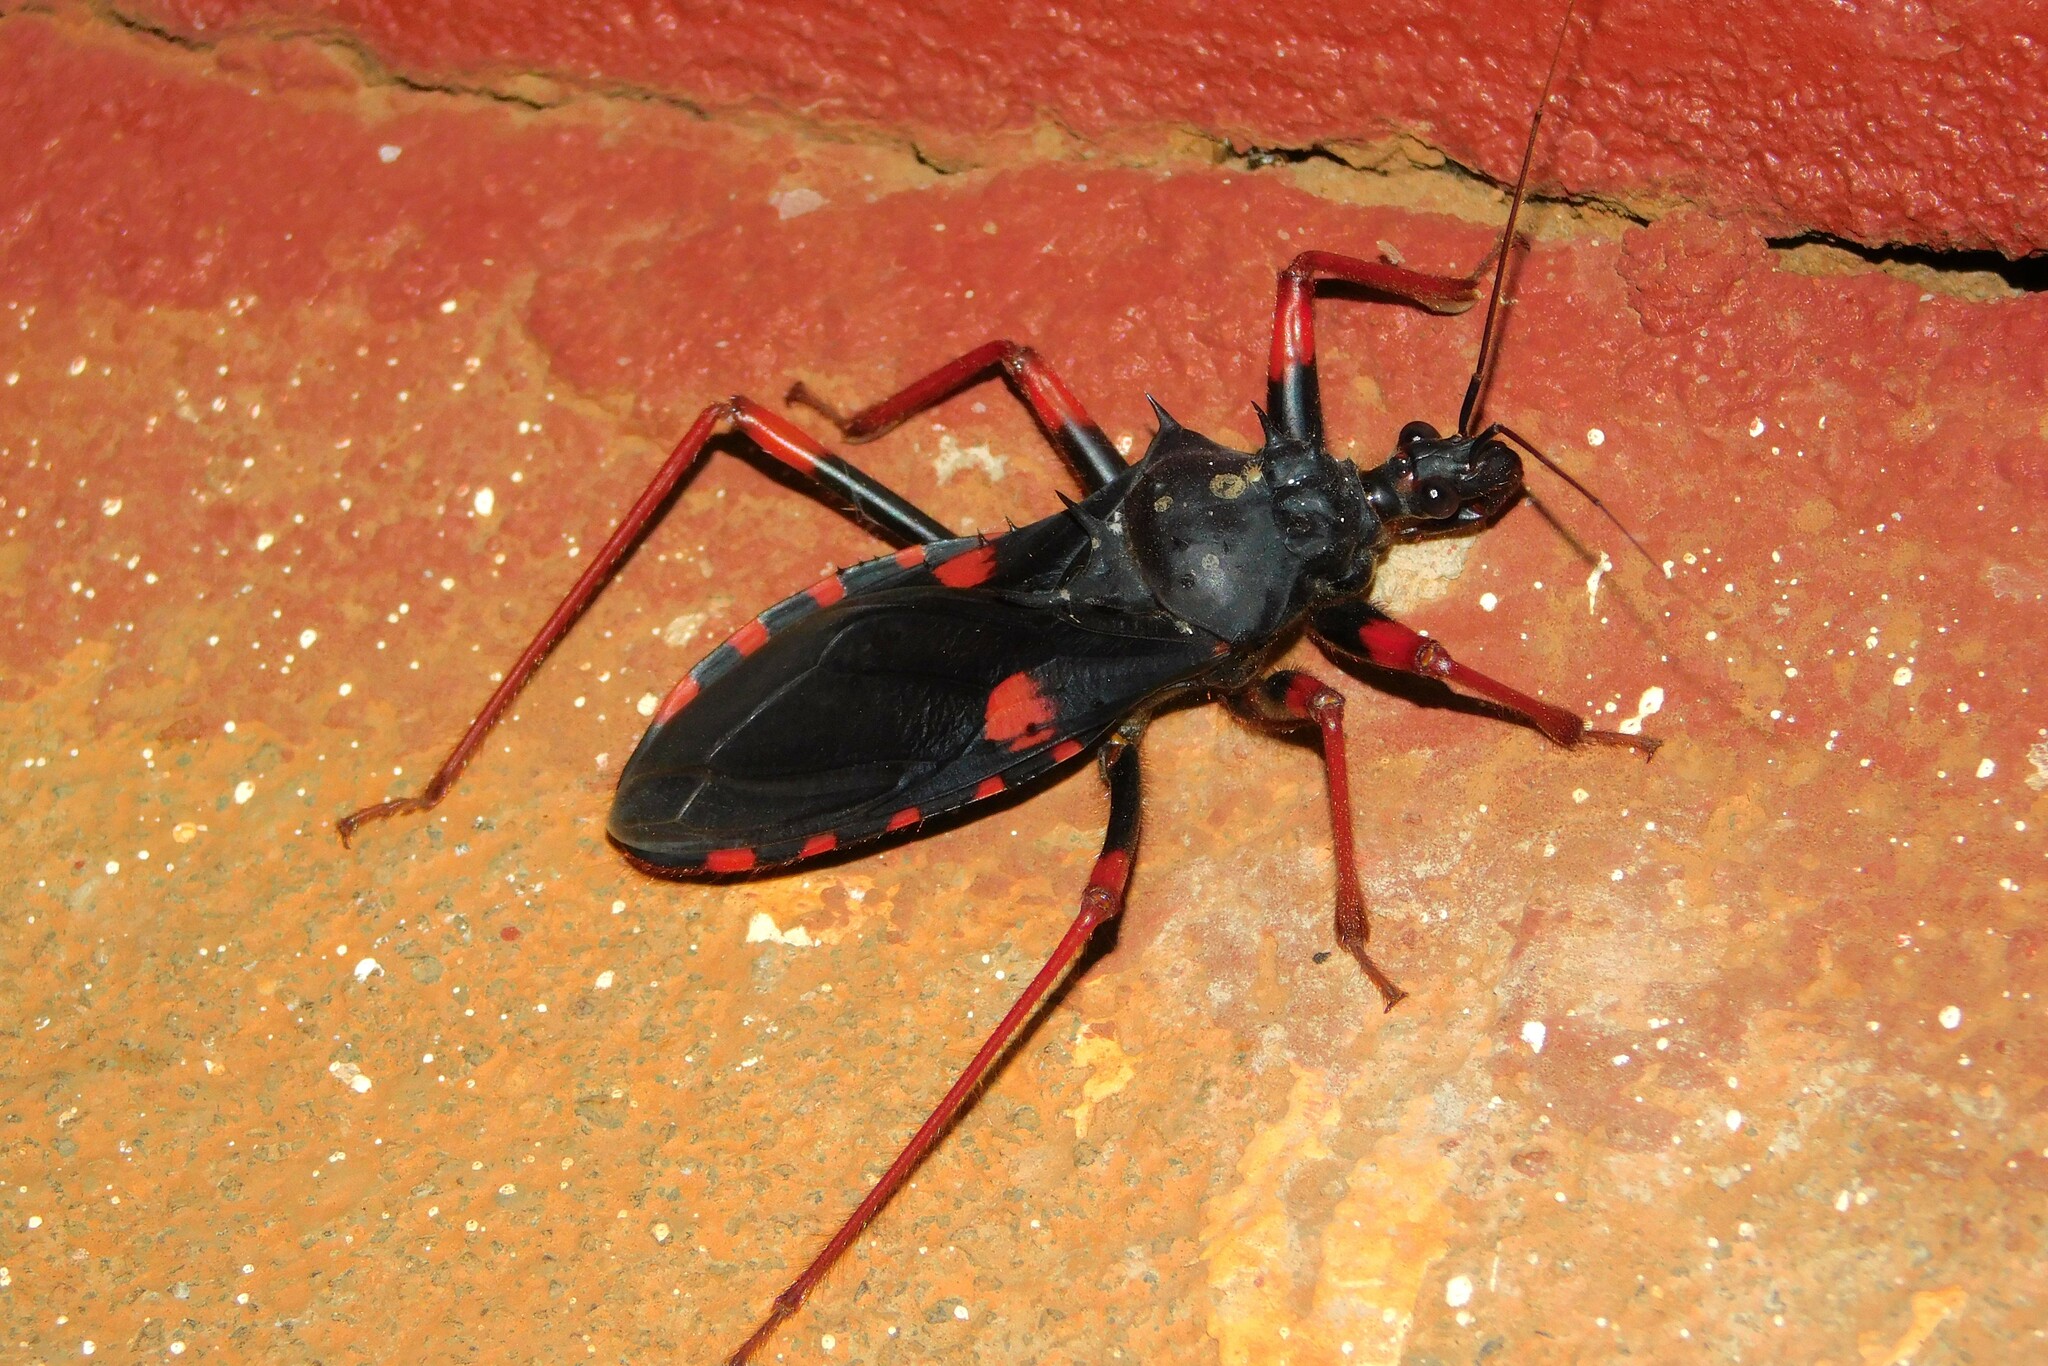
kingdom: Animalia
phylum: Arthropoda
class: Insecta
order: Hemiptera
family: Reduviidae
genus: Psytalla
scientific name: Psytalla horrida
